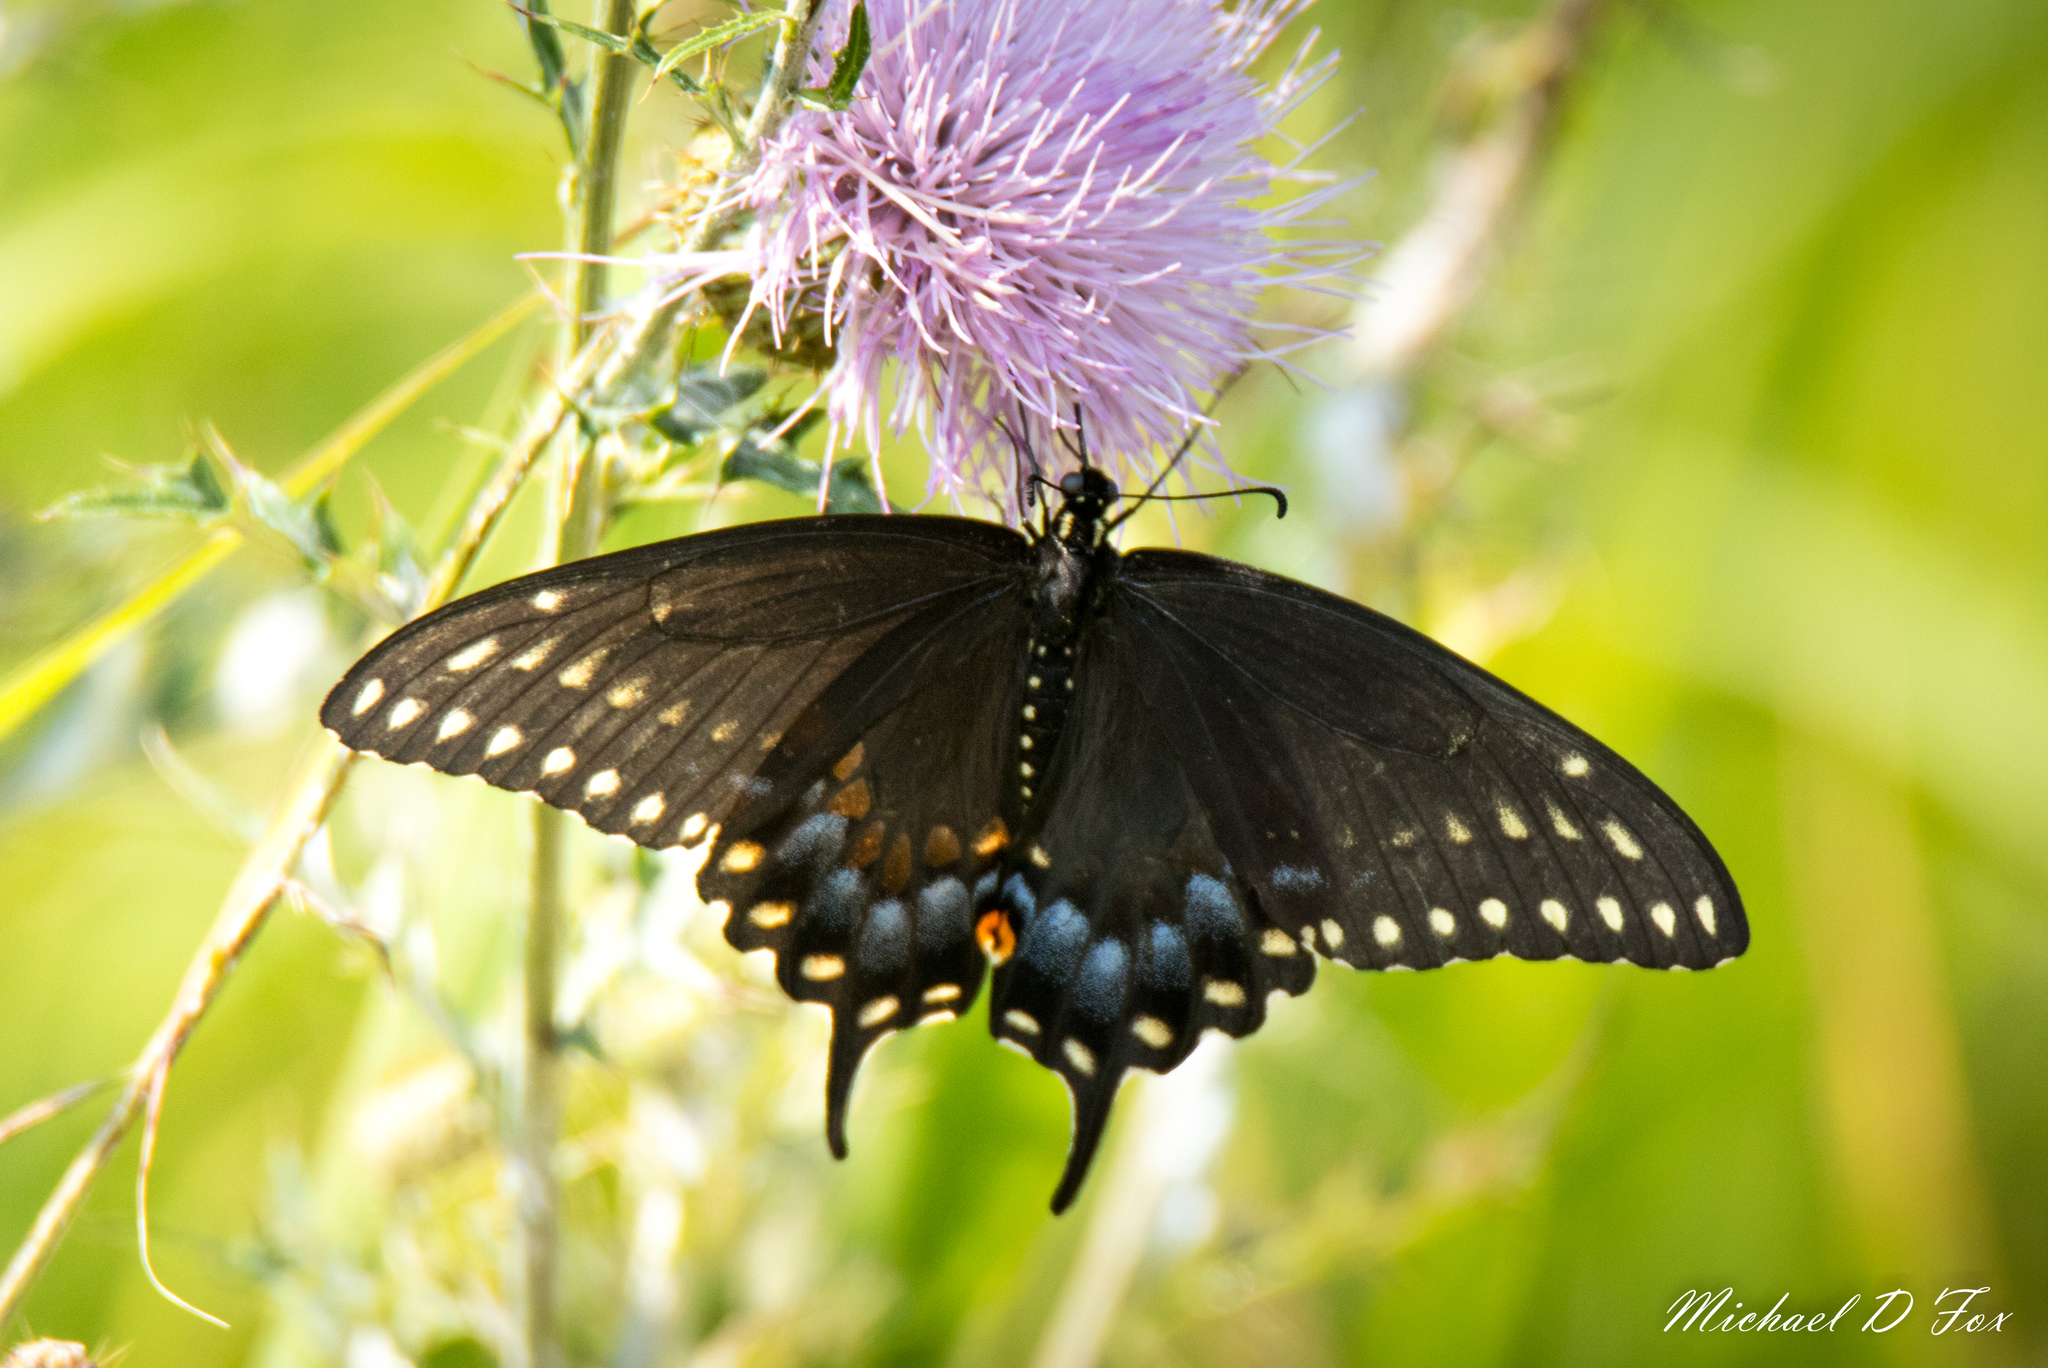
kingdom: Animalia
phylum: Arthropoda
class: Insecta
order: Lepidoptera
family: Papilionidae
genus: Papilio
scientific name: Papilio polyxenes
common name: Black swallowtail
